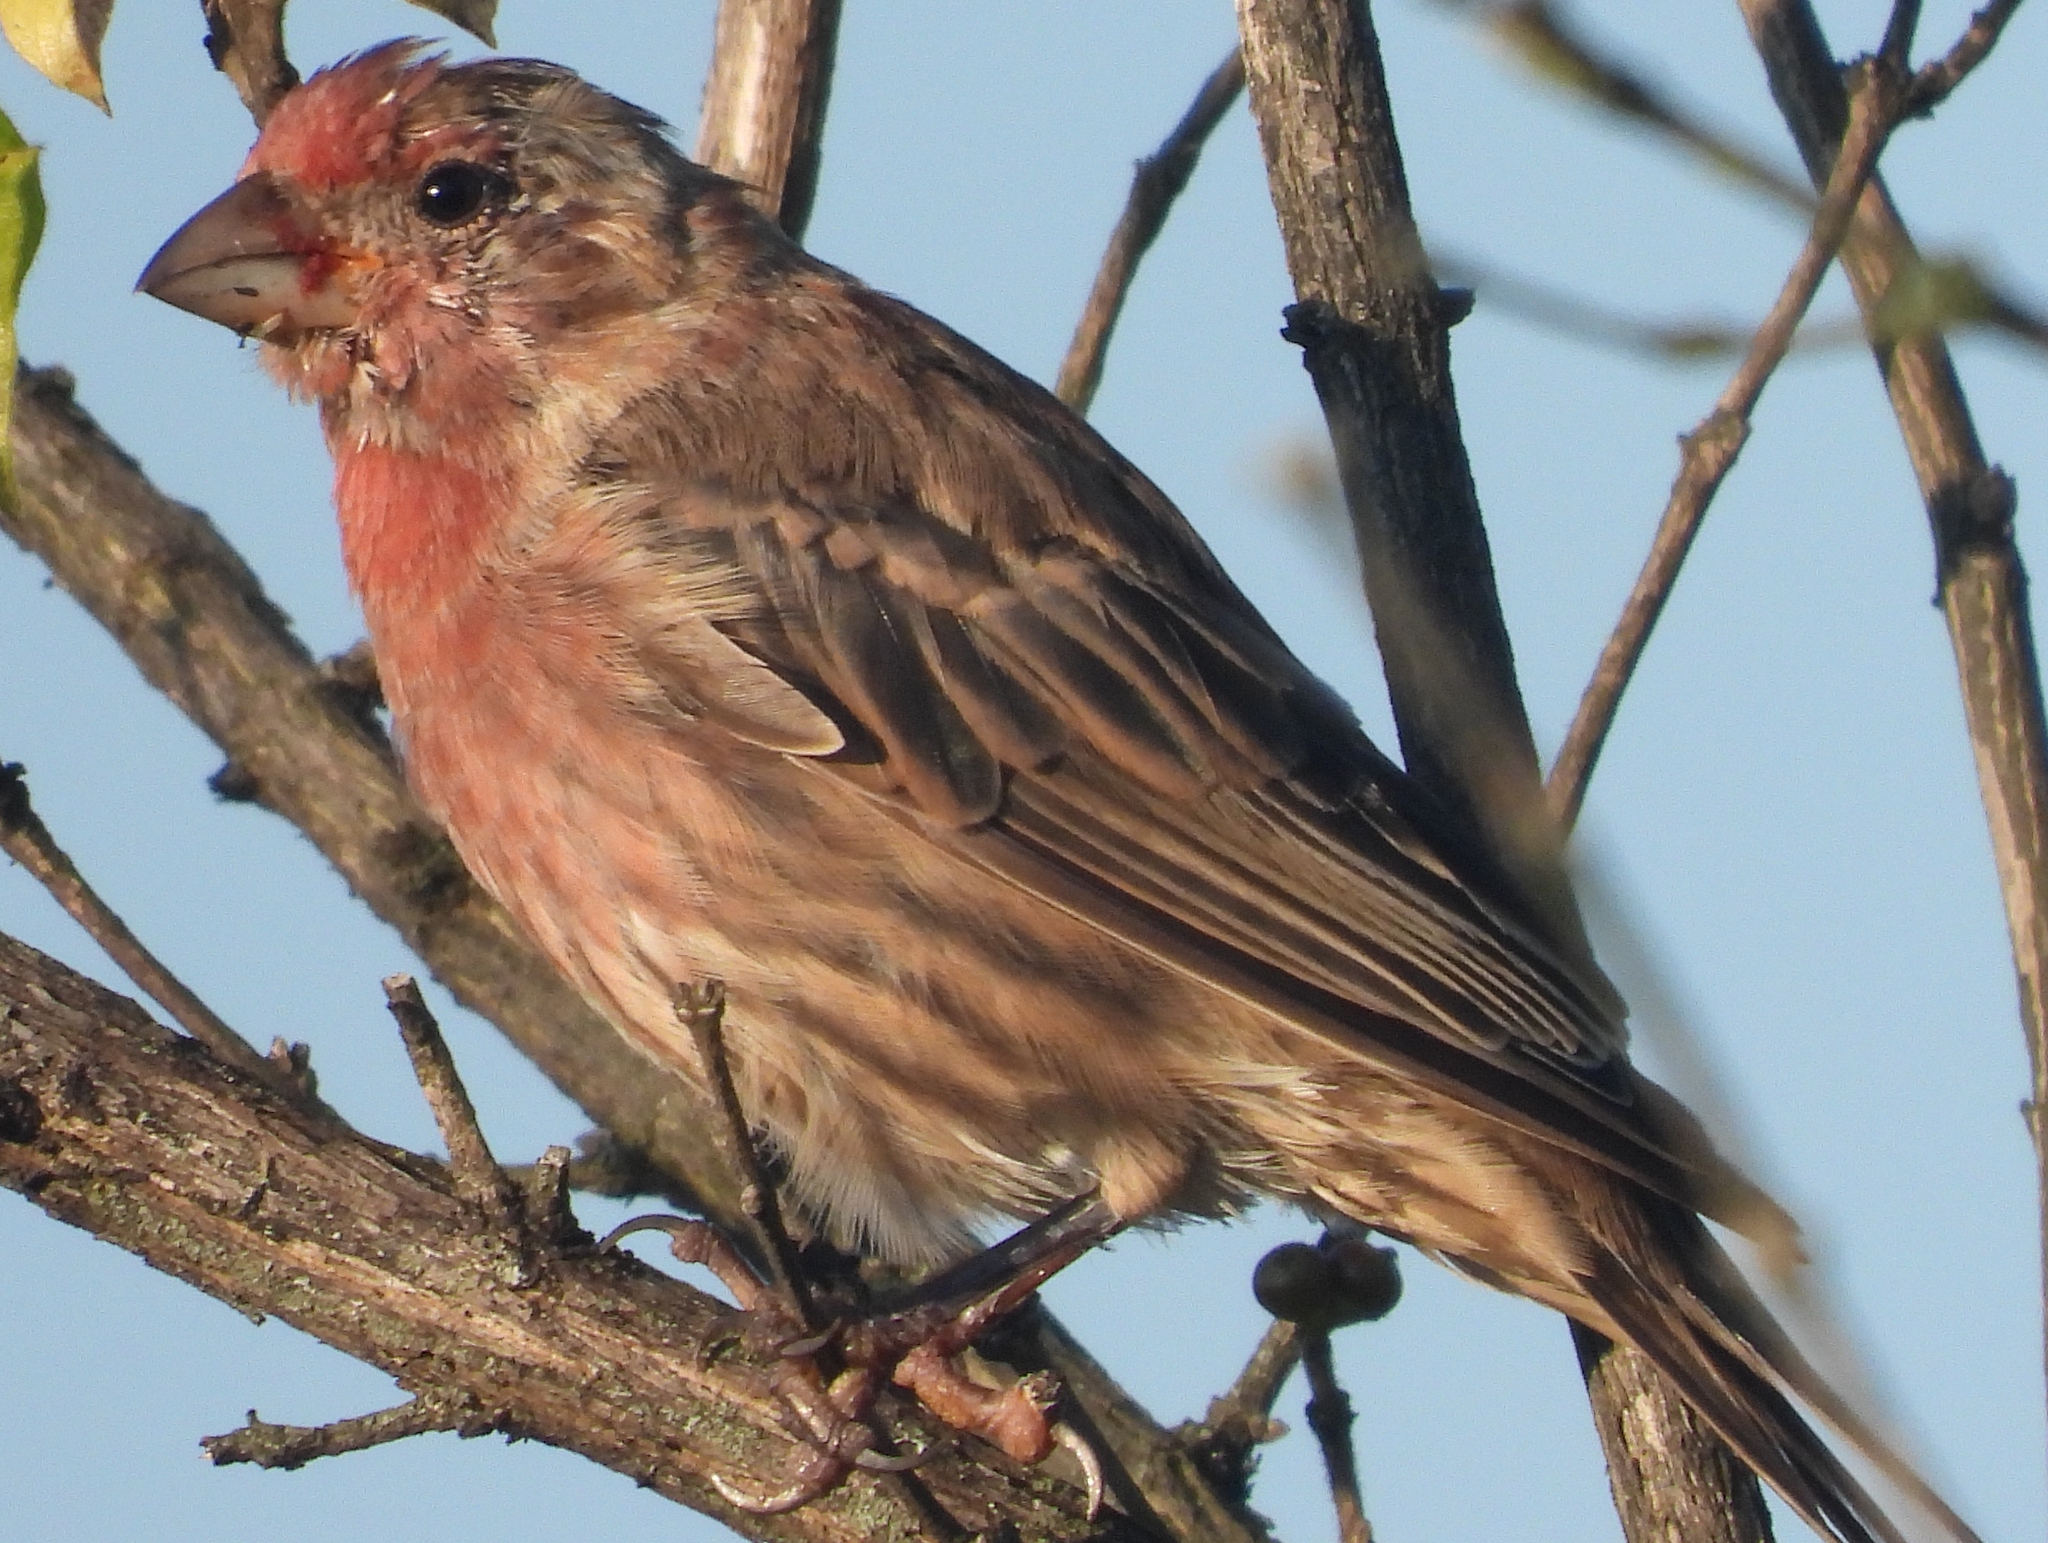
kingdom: Animalia
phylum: Chordata
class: Aves
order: Passeriformes
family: Fringillidae
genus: Haemorhous
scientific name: Haemorhous mexicanus
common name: House finch
